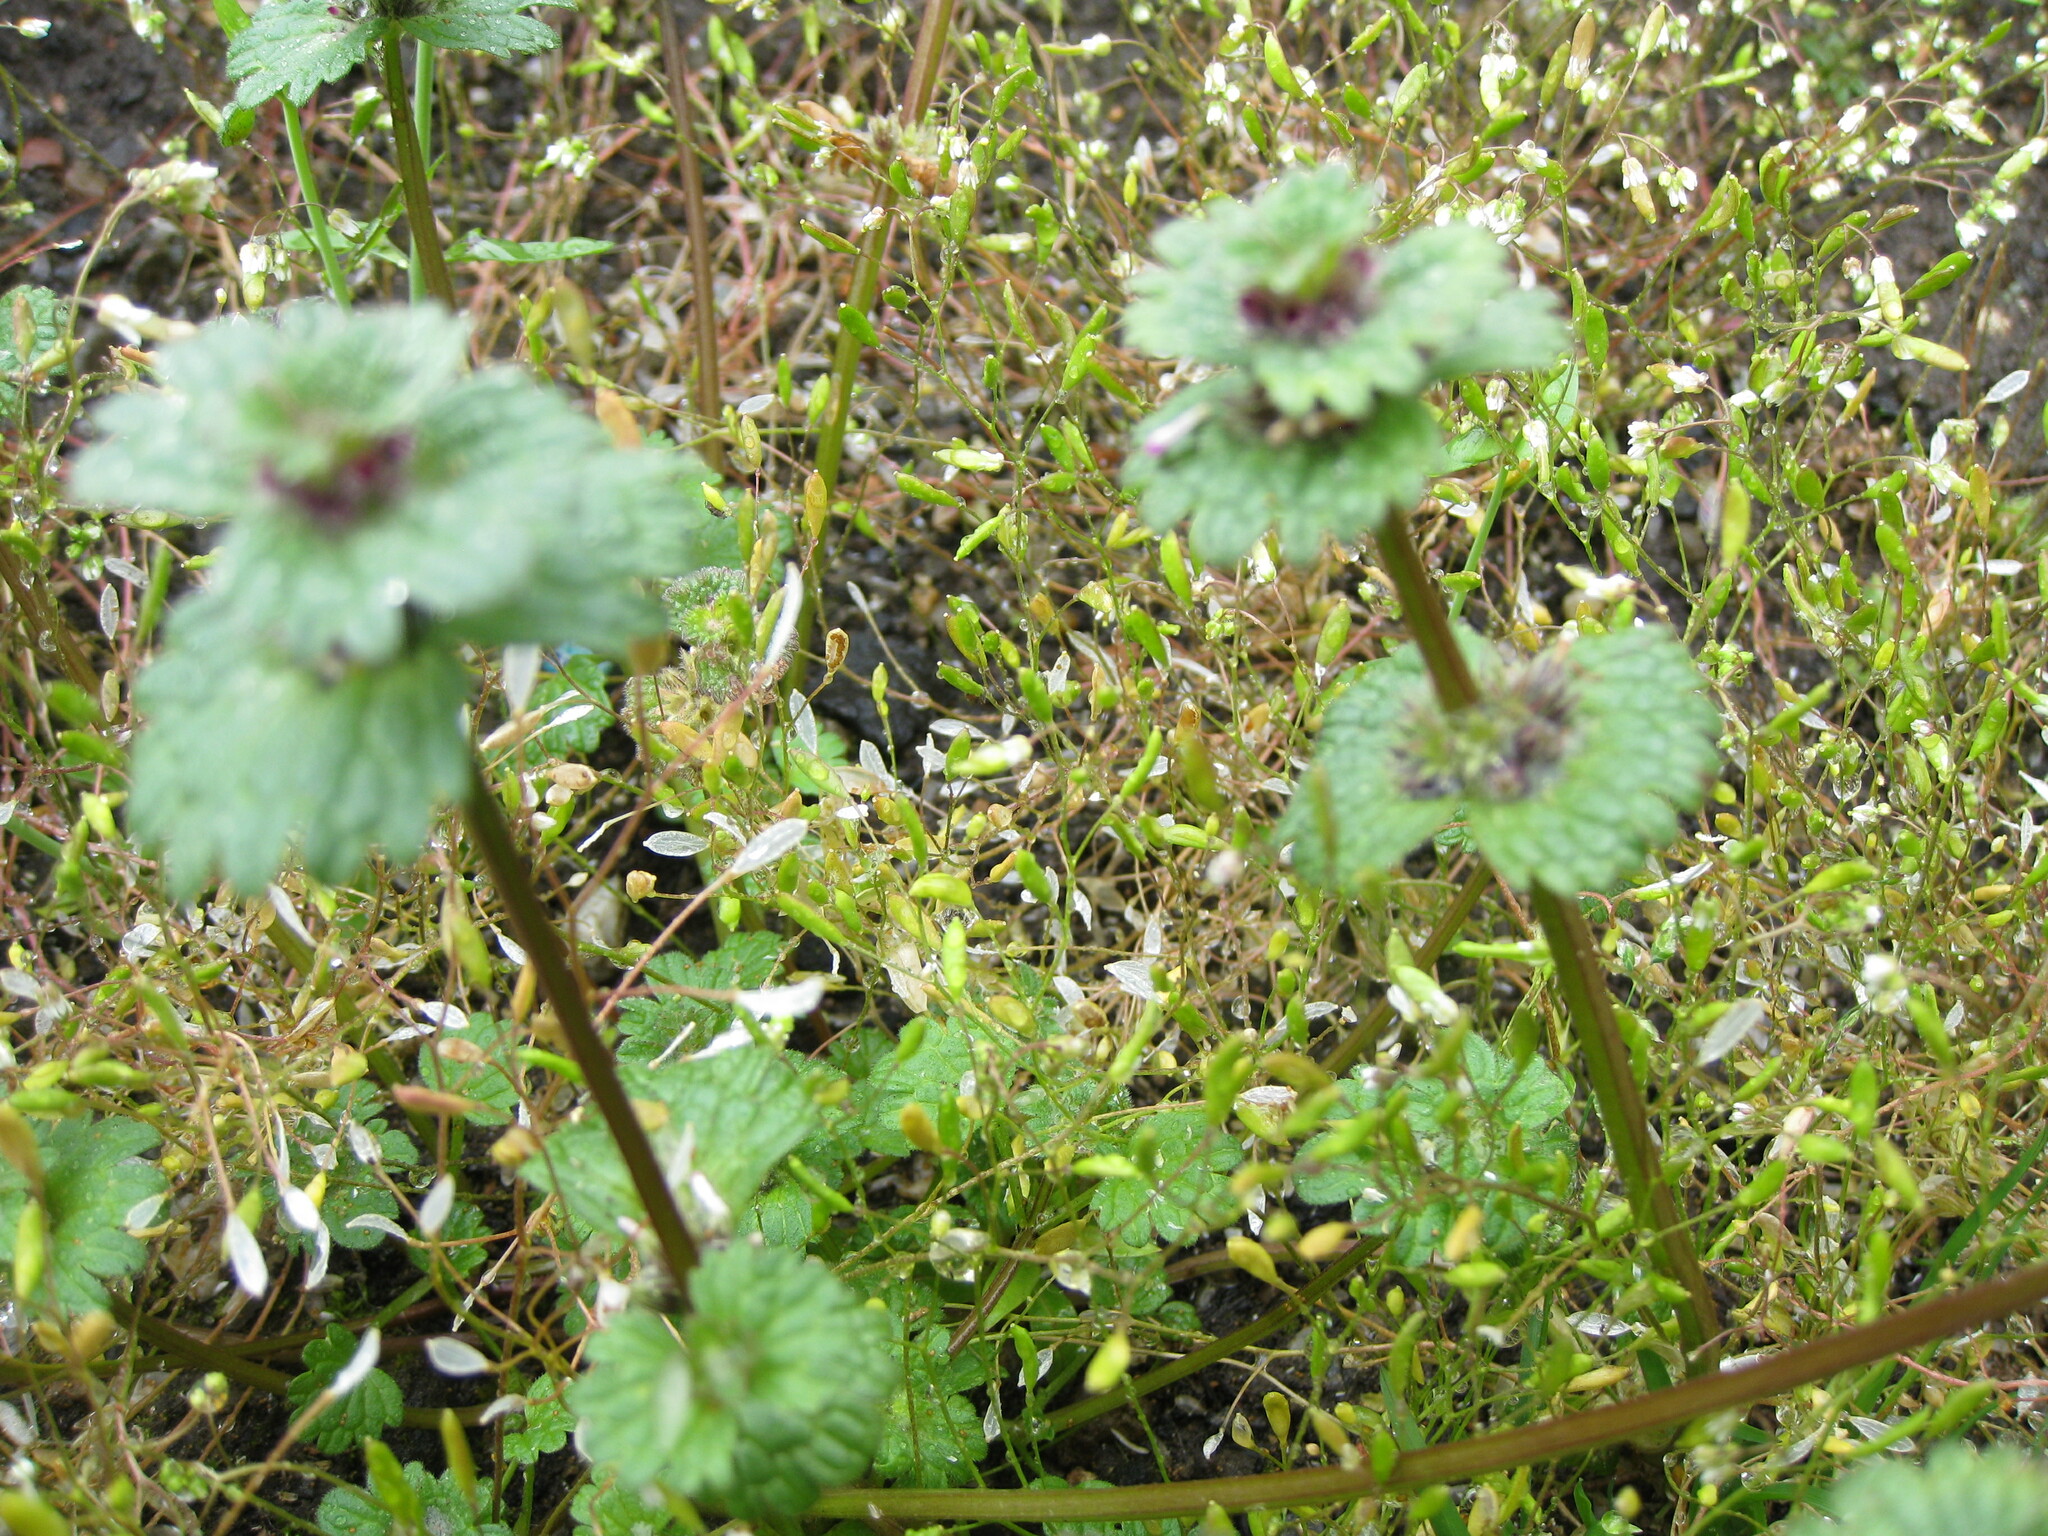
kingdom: Plantae
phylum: Tracheophyta
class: Magnoliopsida
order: Lamiales
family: Lamiaceae
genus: Lamium
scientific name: Lamium amplexicaule
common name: Henbit dead-nettle
